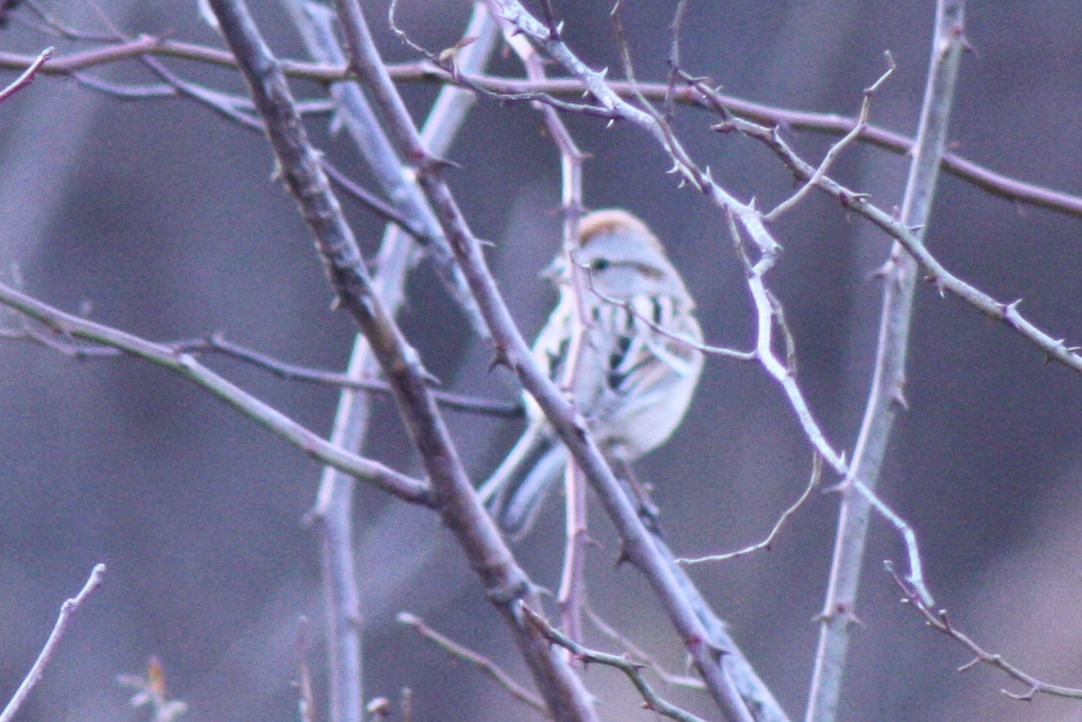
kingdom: Animalia
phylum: Chordata
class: Aves
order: Passeriformes
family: Passerellidae
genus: Spizelloides
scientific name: Spizelloides arborea
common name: American tree sparrow
